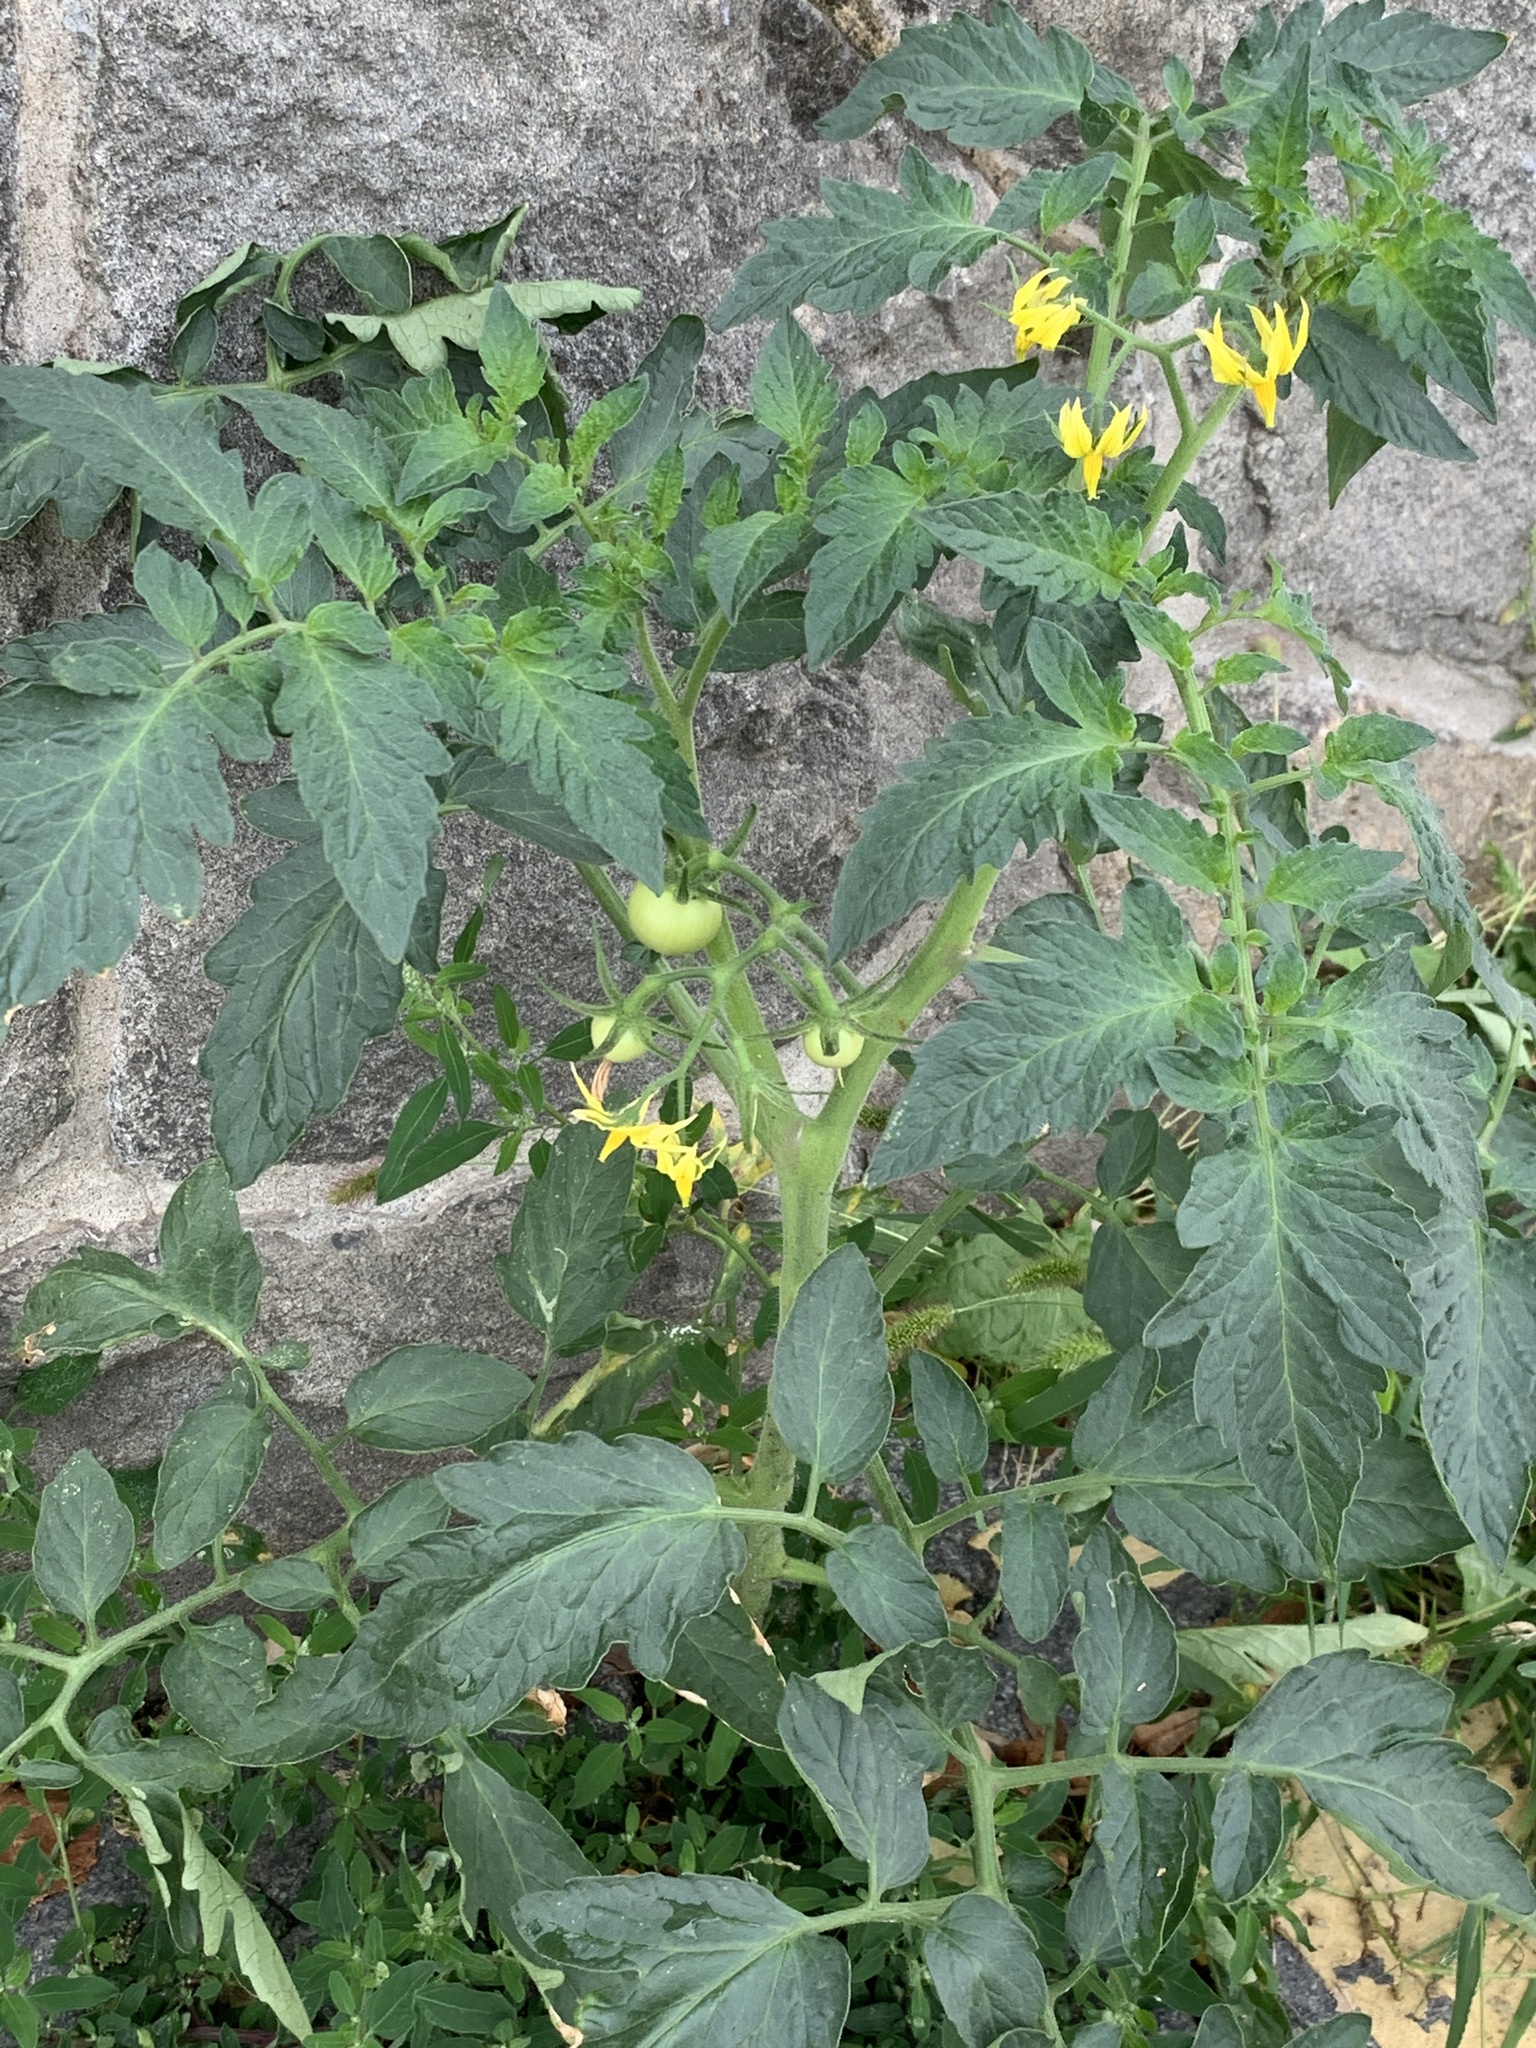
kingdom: Plantae
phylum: Tracheophyta
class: Magnoliopsida
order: Solanales
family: Solanaceae
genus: Solanum
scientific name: Solanum lycopersicum
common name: Garden tomato
